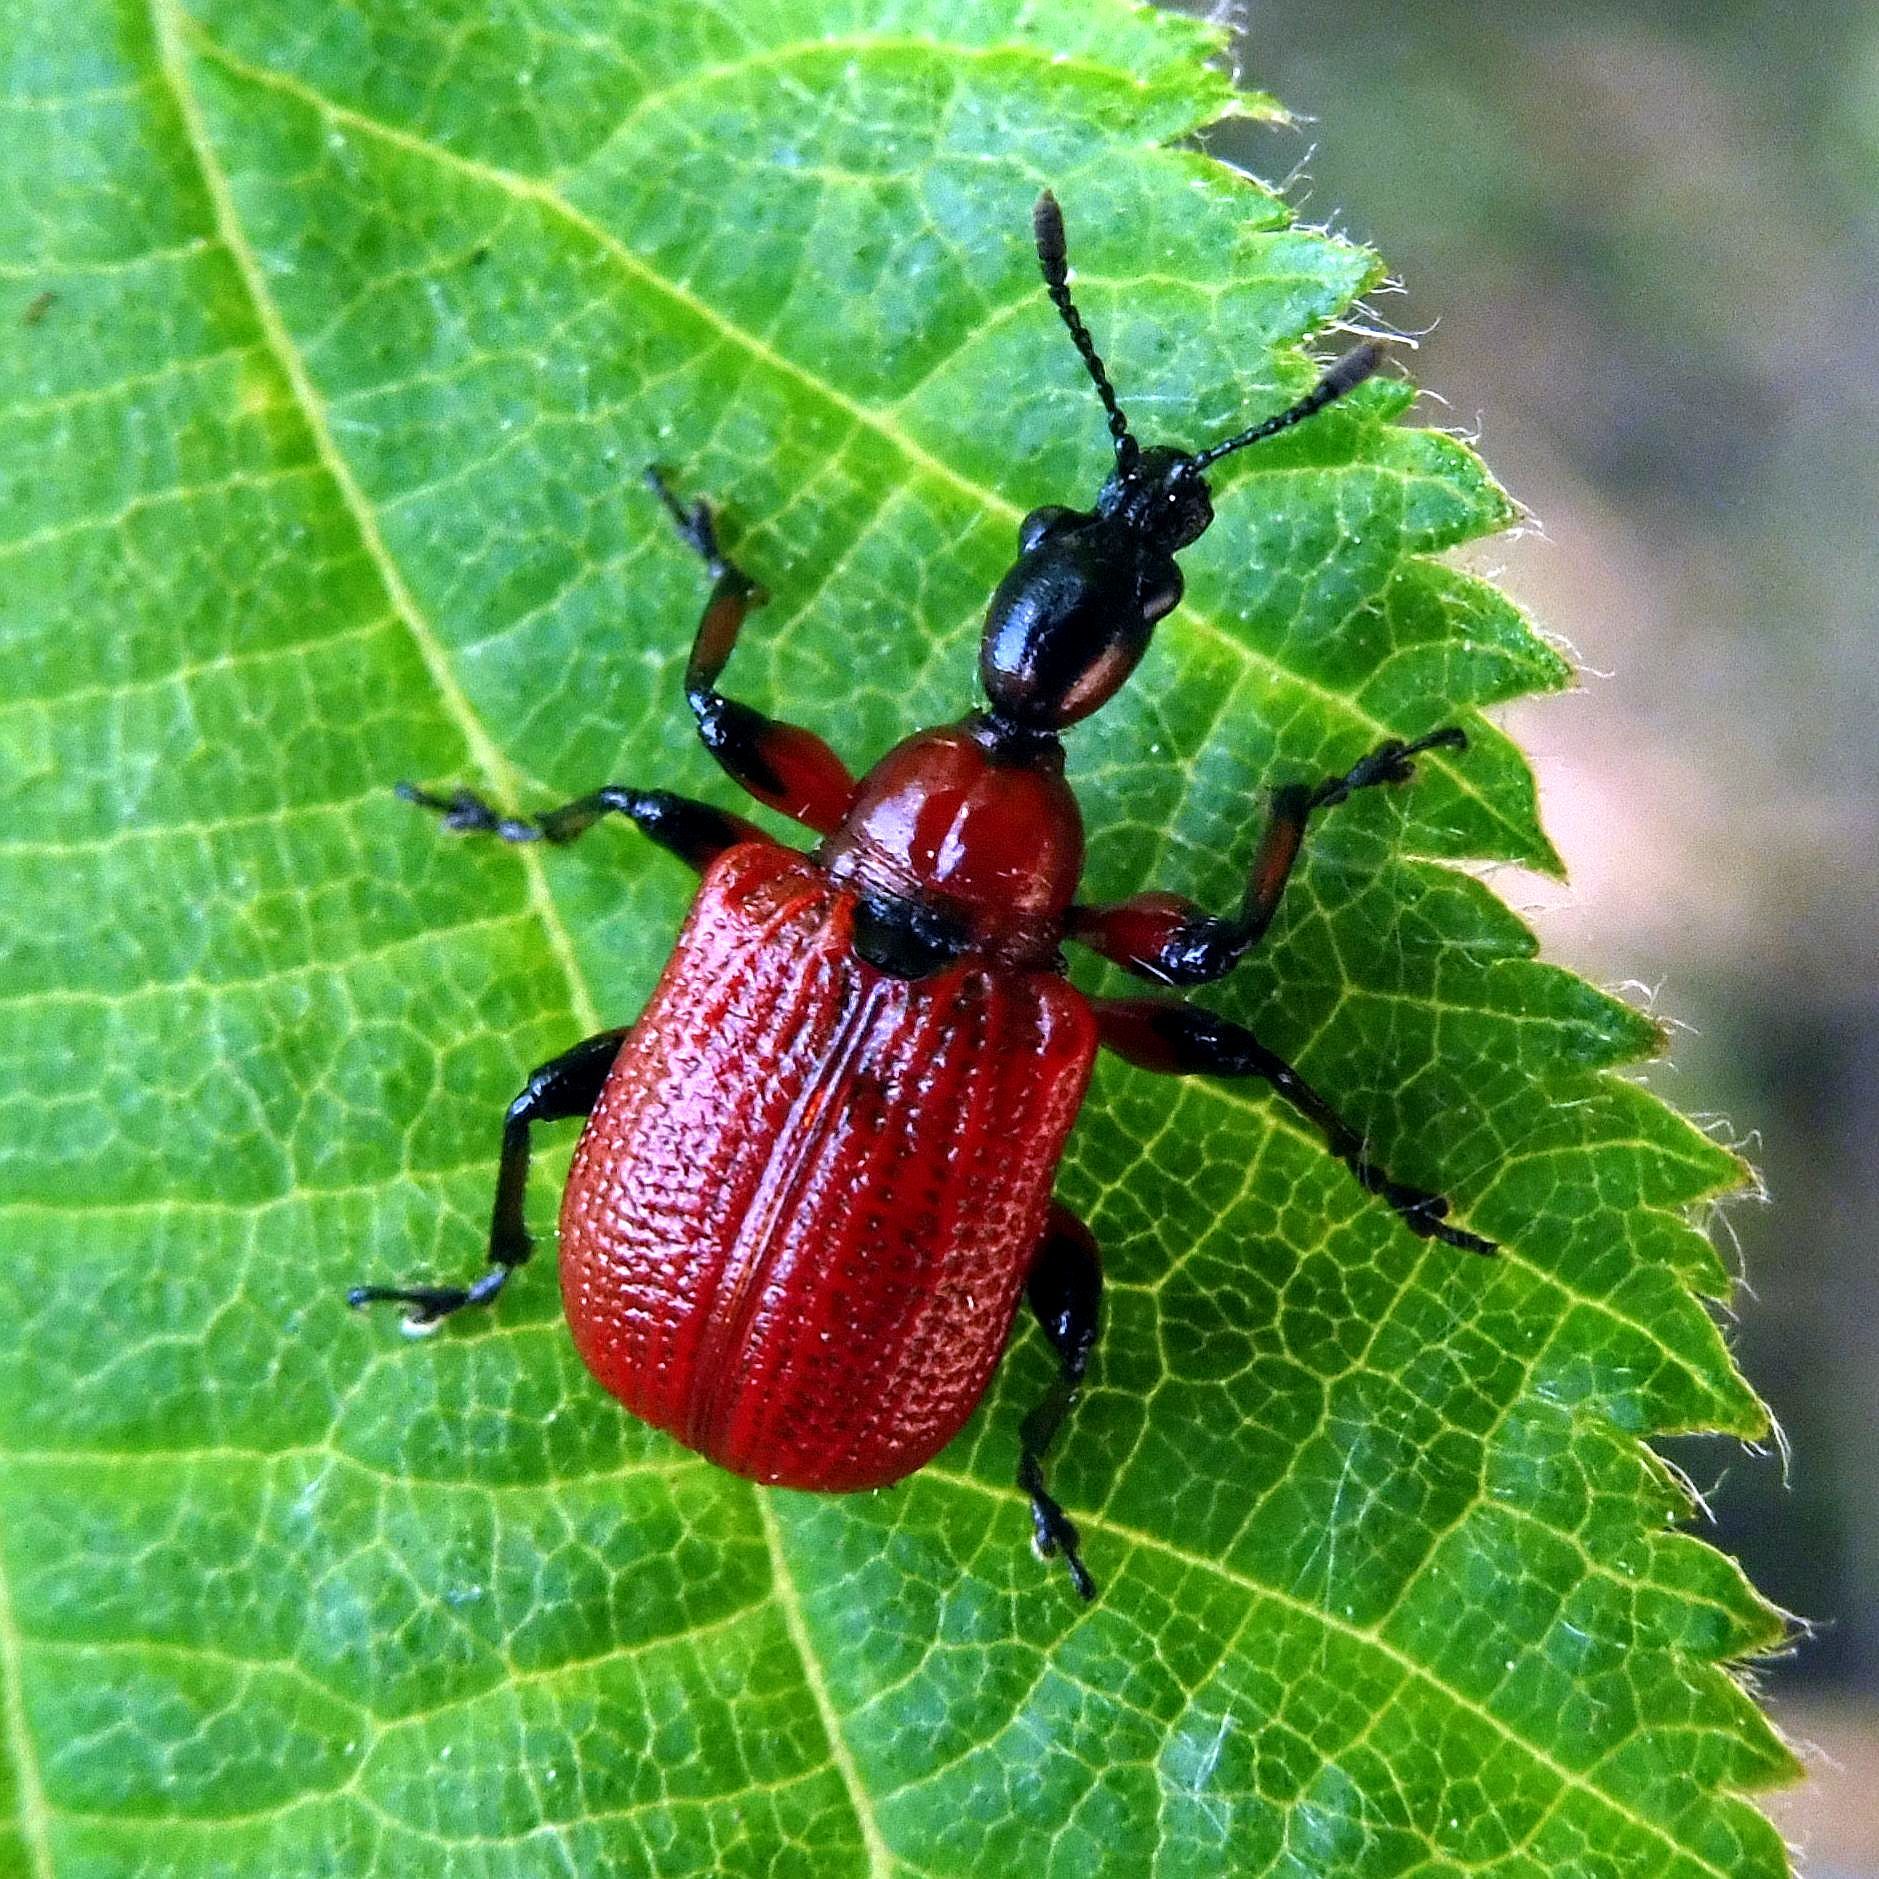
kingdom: Animalia
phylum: Arthropoda
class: Insecta
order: Coleoptera
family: Attelabidae
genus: Apoderus
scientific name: Apoderus coryli
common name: Hazel leaf roller
